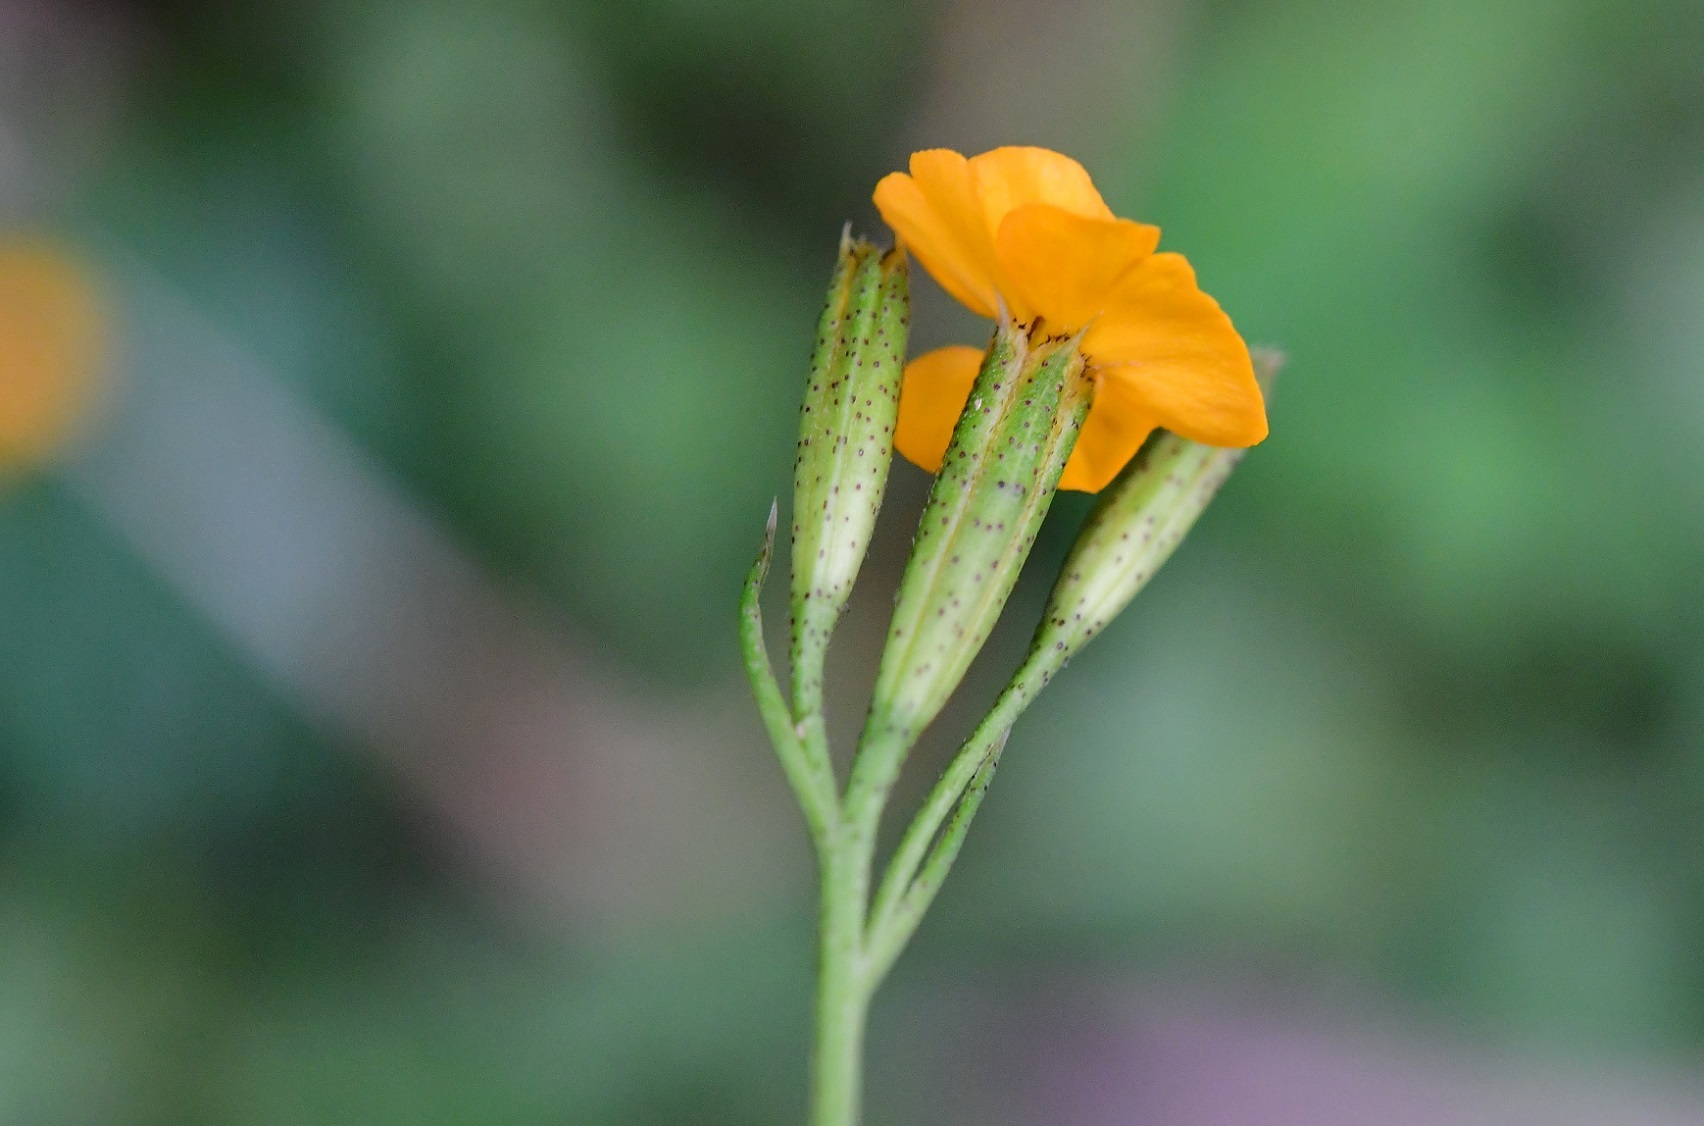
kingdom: Plantae
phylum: Tracheophyta
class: Magnoliopsida
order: Asterales
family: Asteraceae
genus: Tagetes
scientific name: Tagetes lucida
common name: Sweetscented marigold
